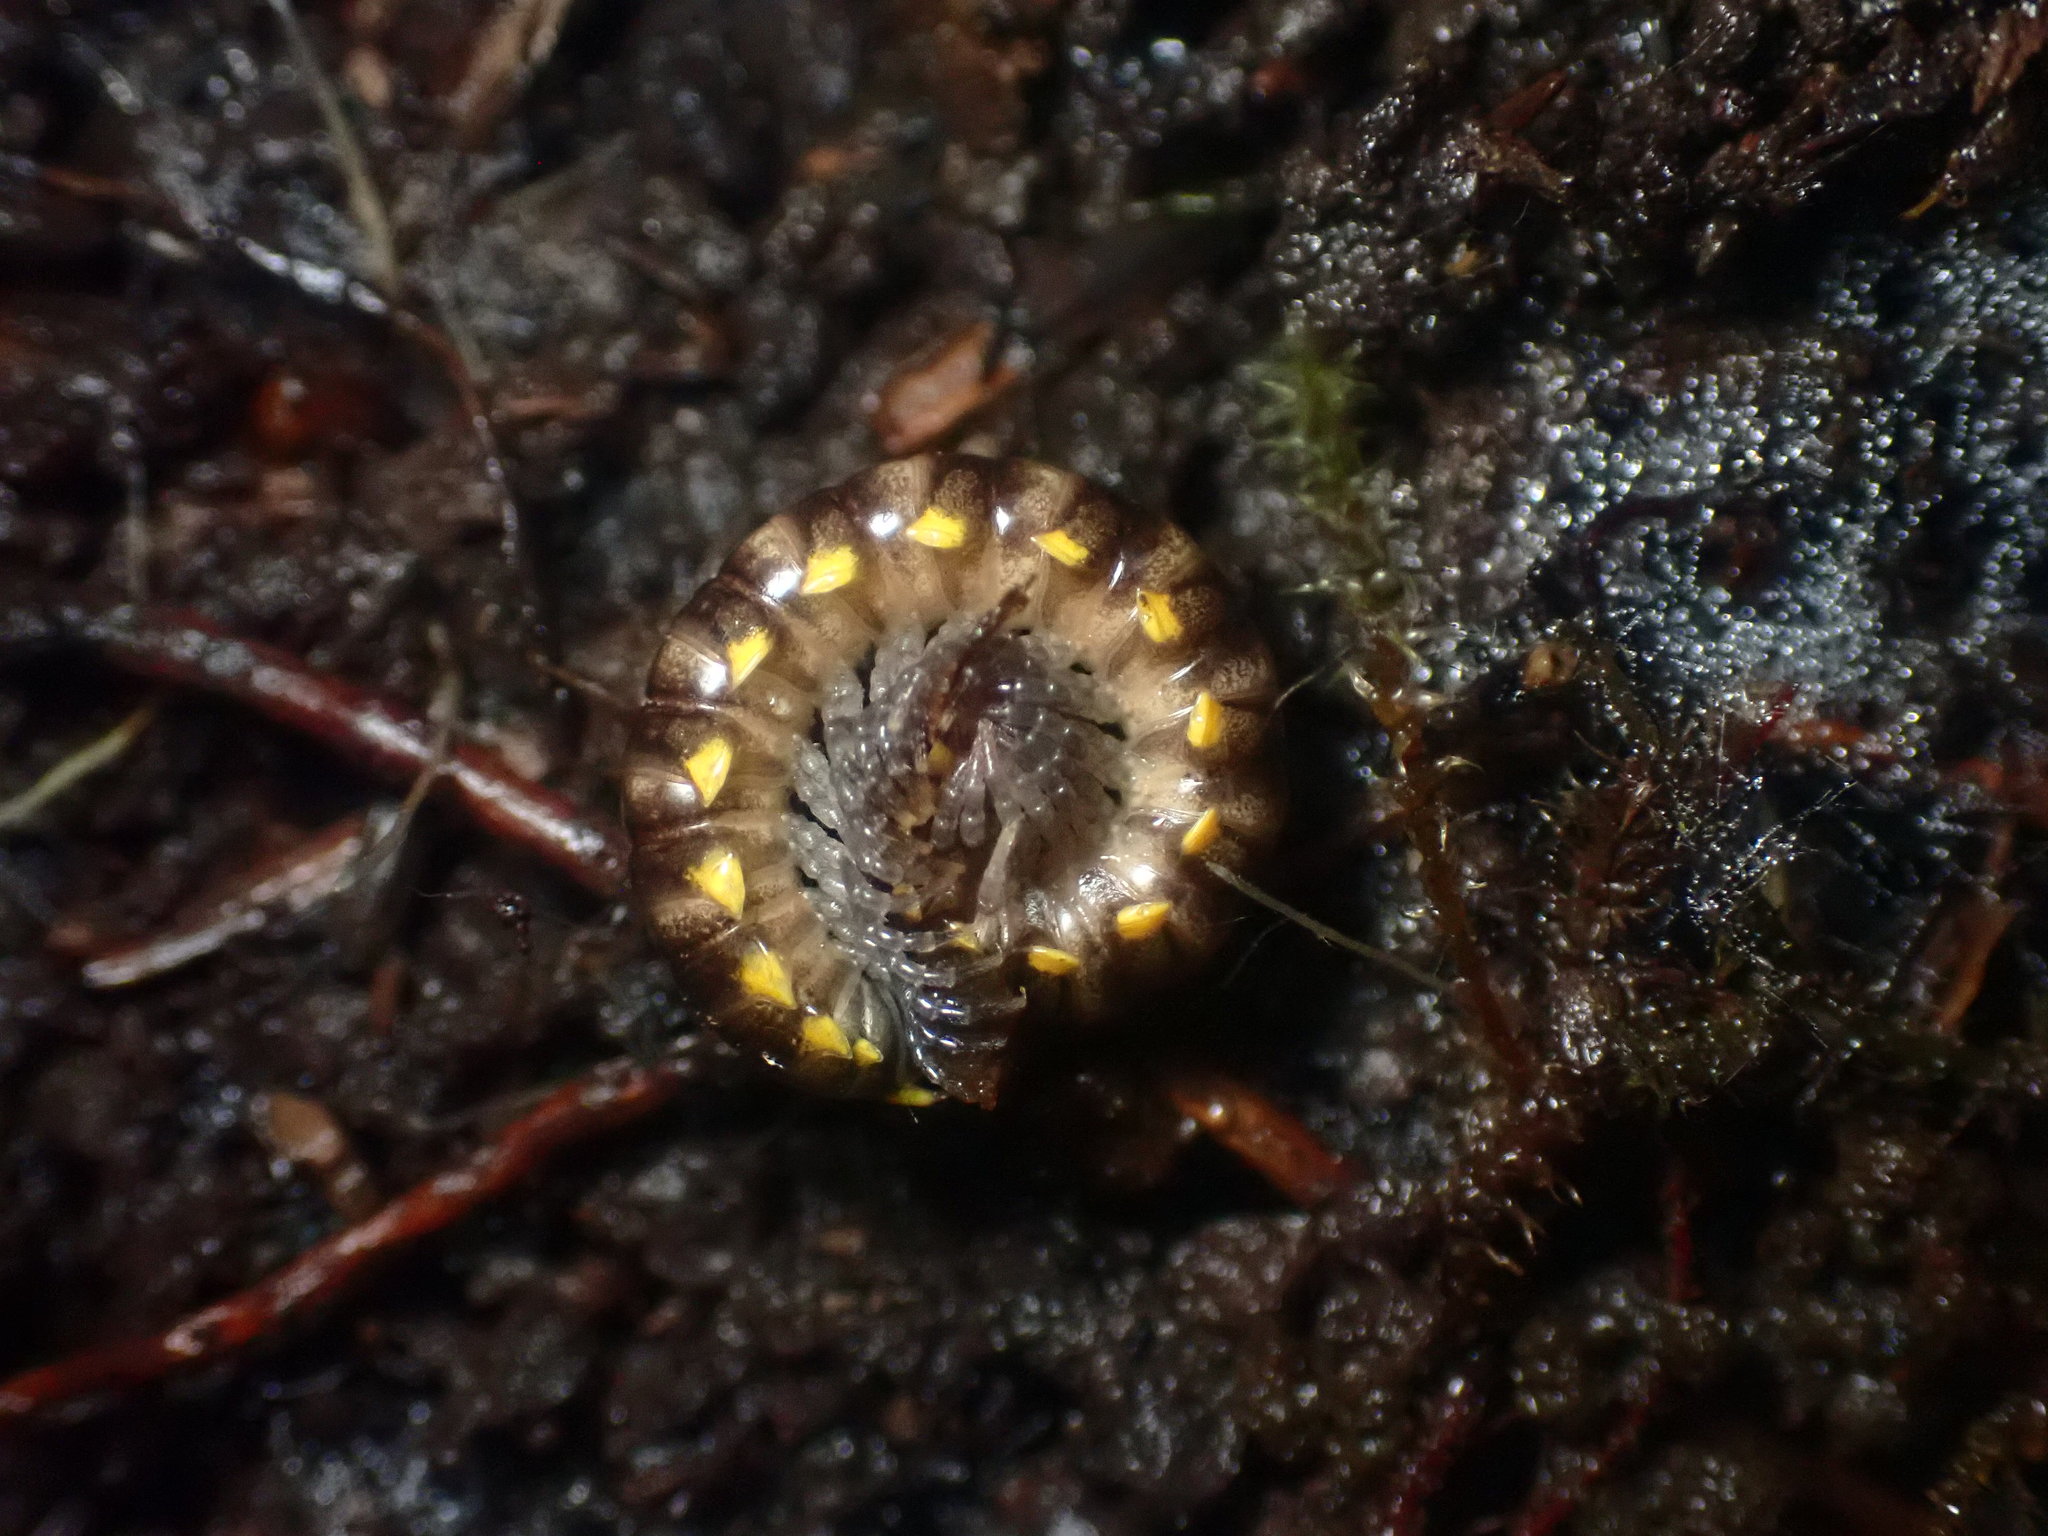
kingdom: Animalia
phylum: Arthropoda
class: Diplopoda
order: Polydesmida
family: Xystodesmidae
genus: Harpaphe
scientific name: Harpaphe haydeniana
